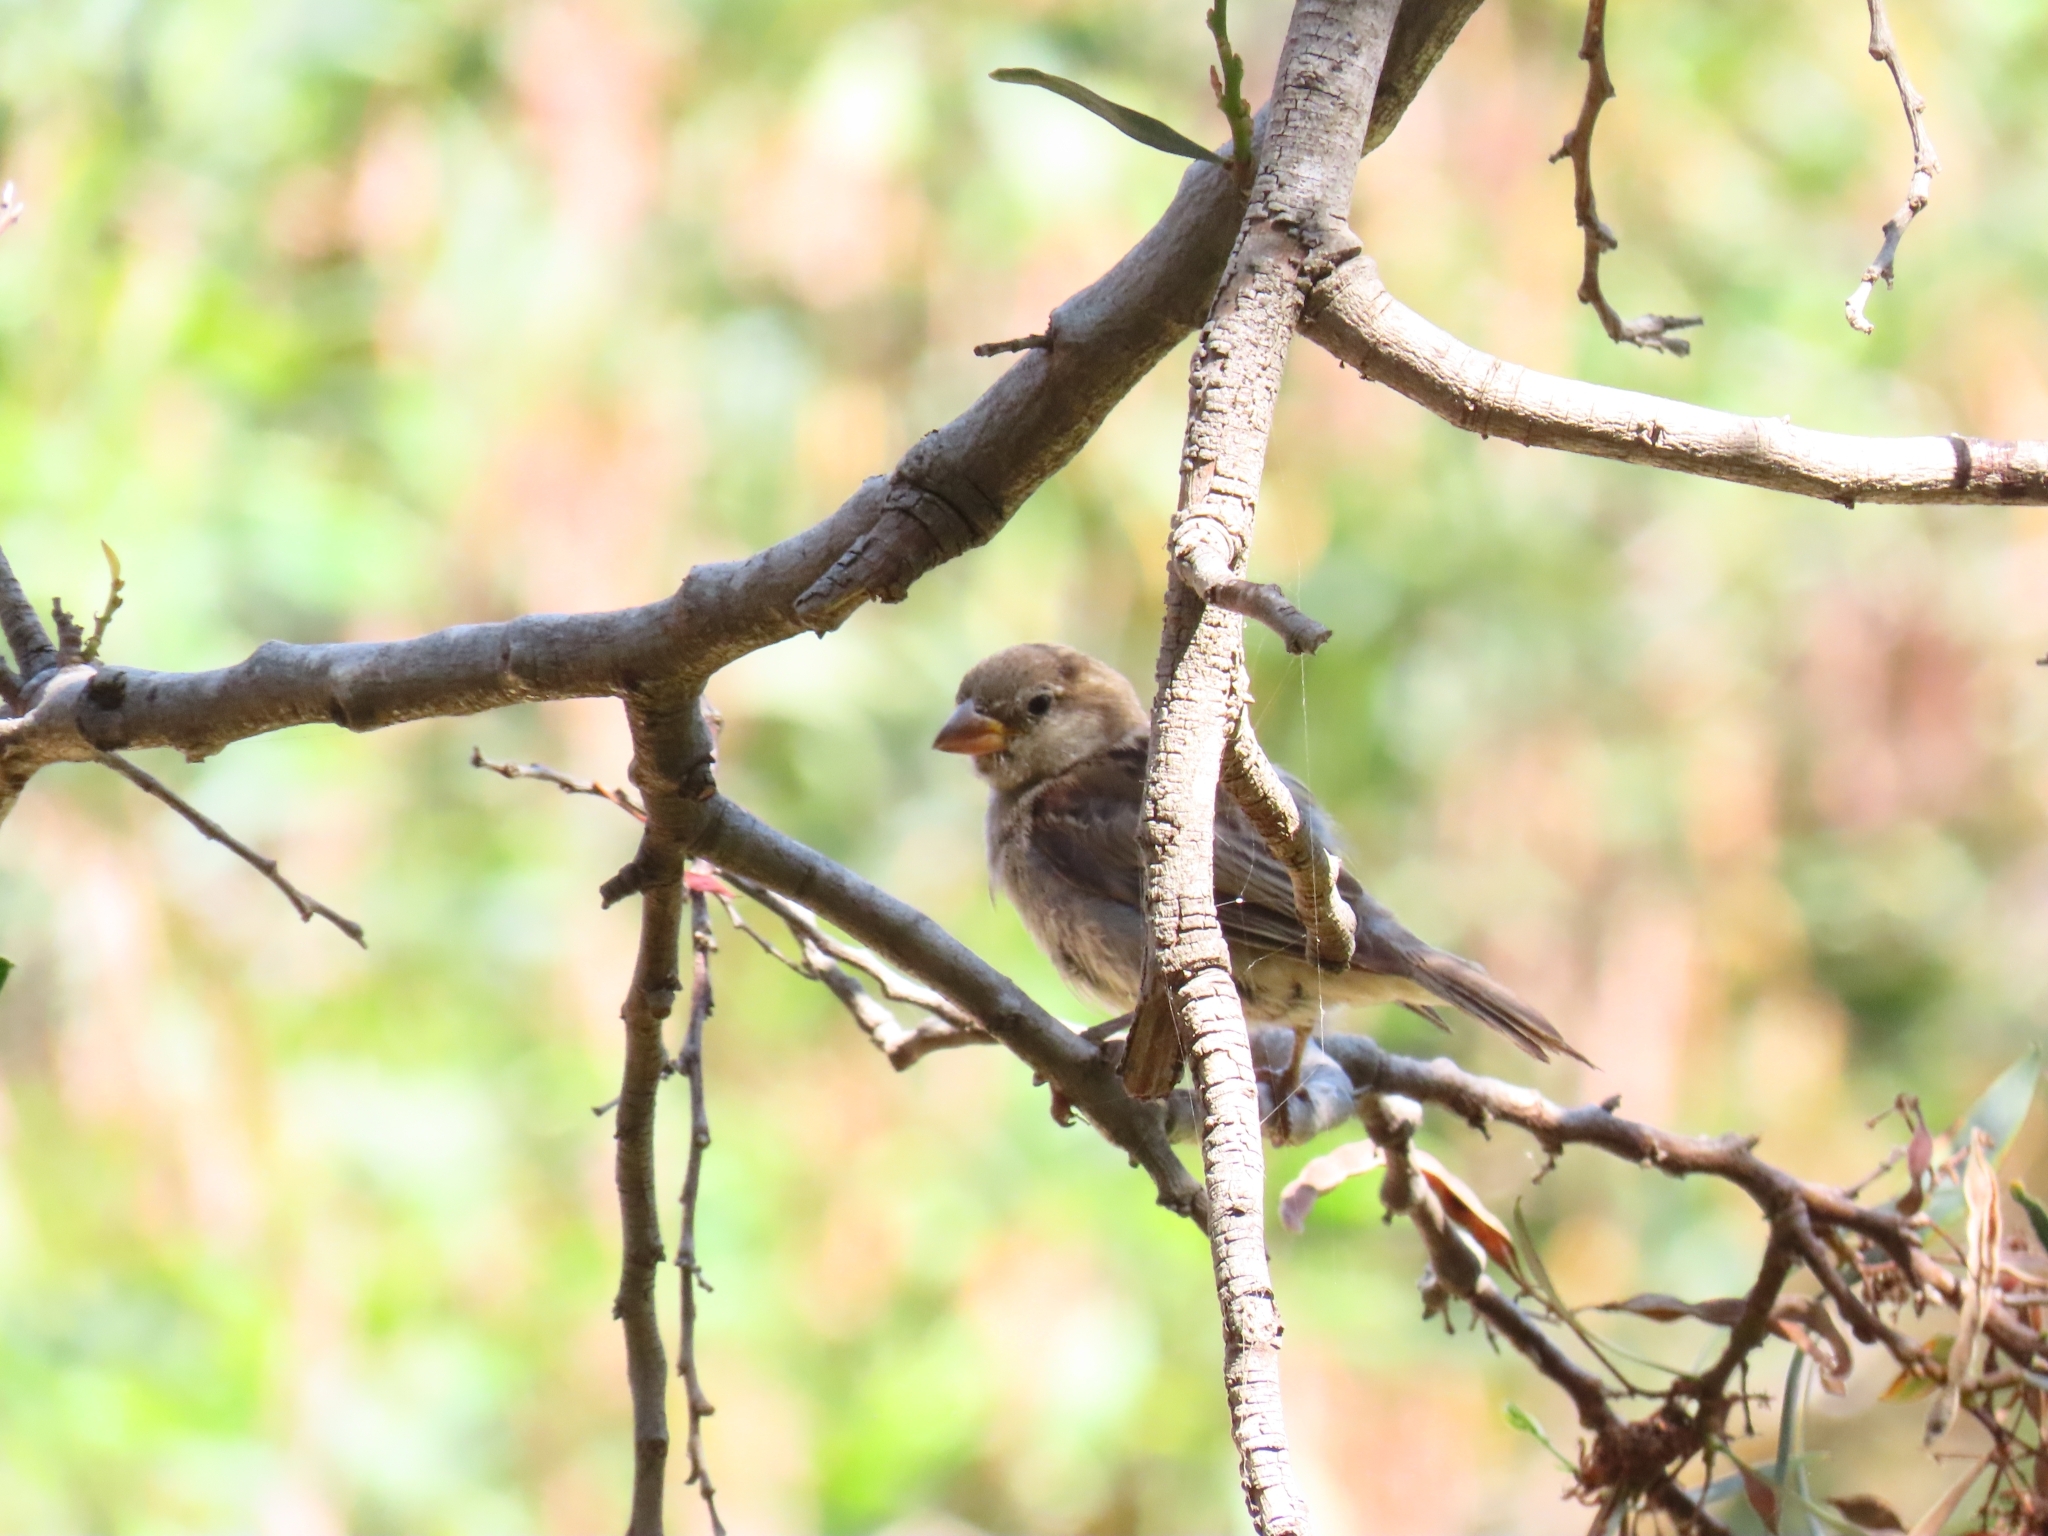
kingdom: Animalia
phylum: Chordata
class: Aves
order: Passeriformes
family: Passeridae
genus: Passer
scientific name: Passer domesticus
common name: House sparrow
